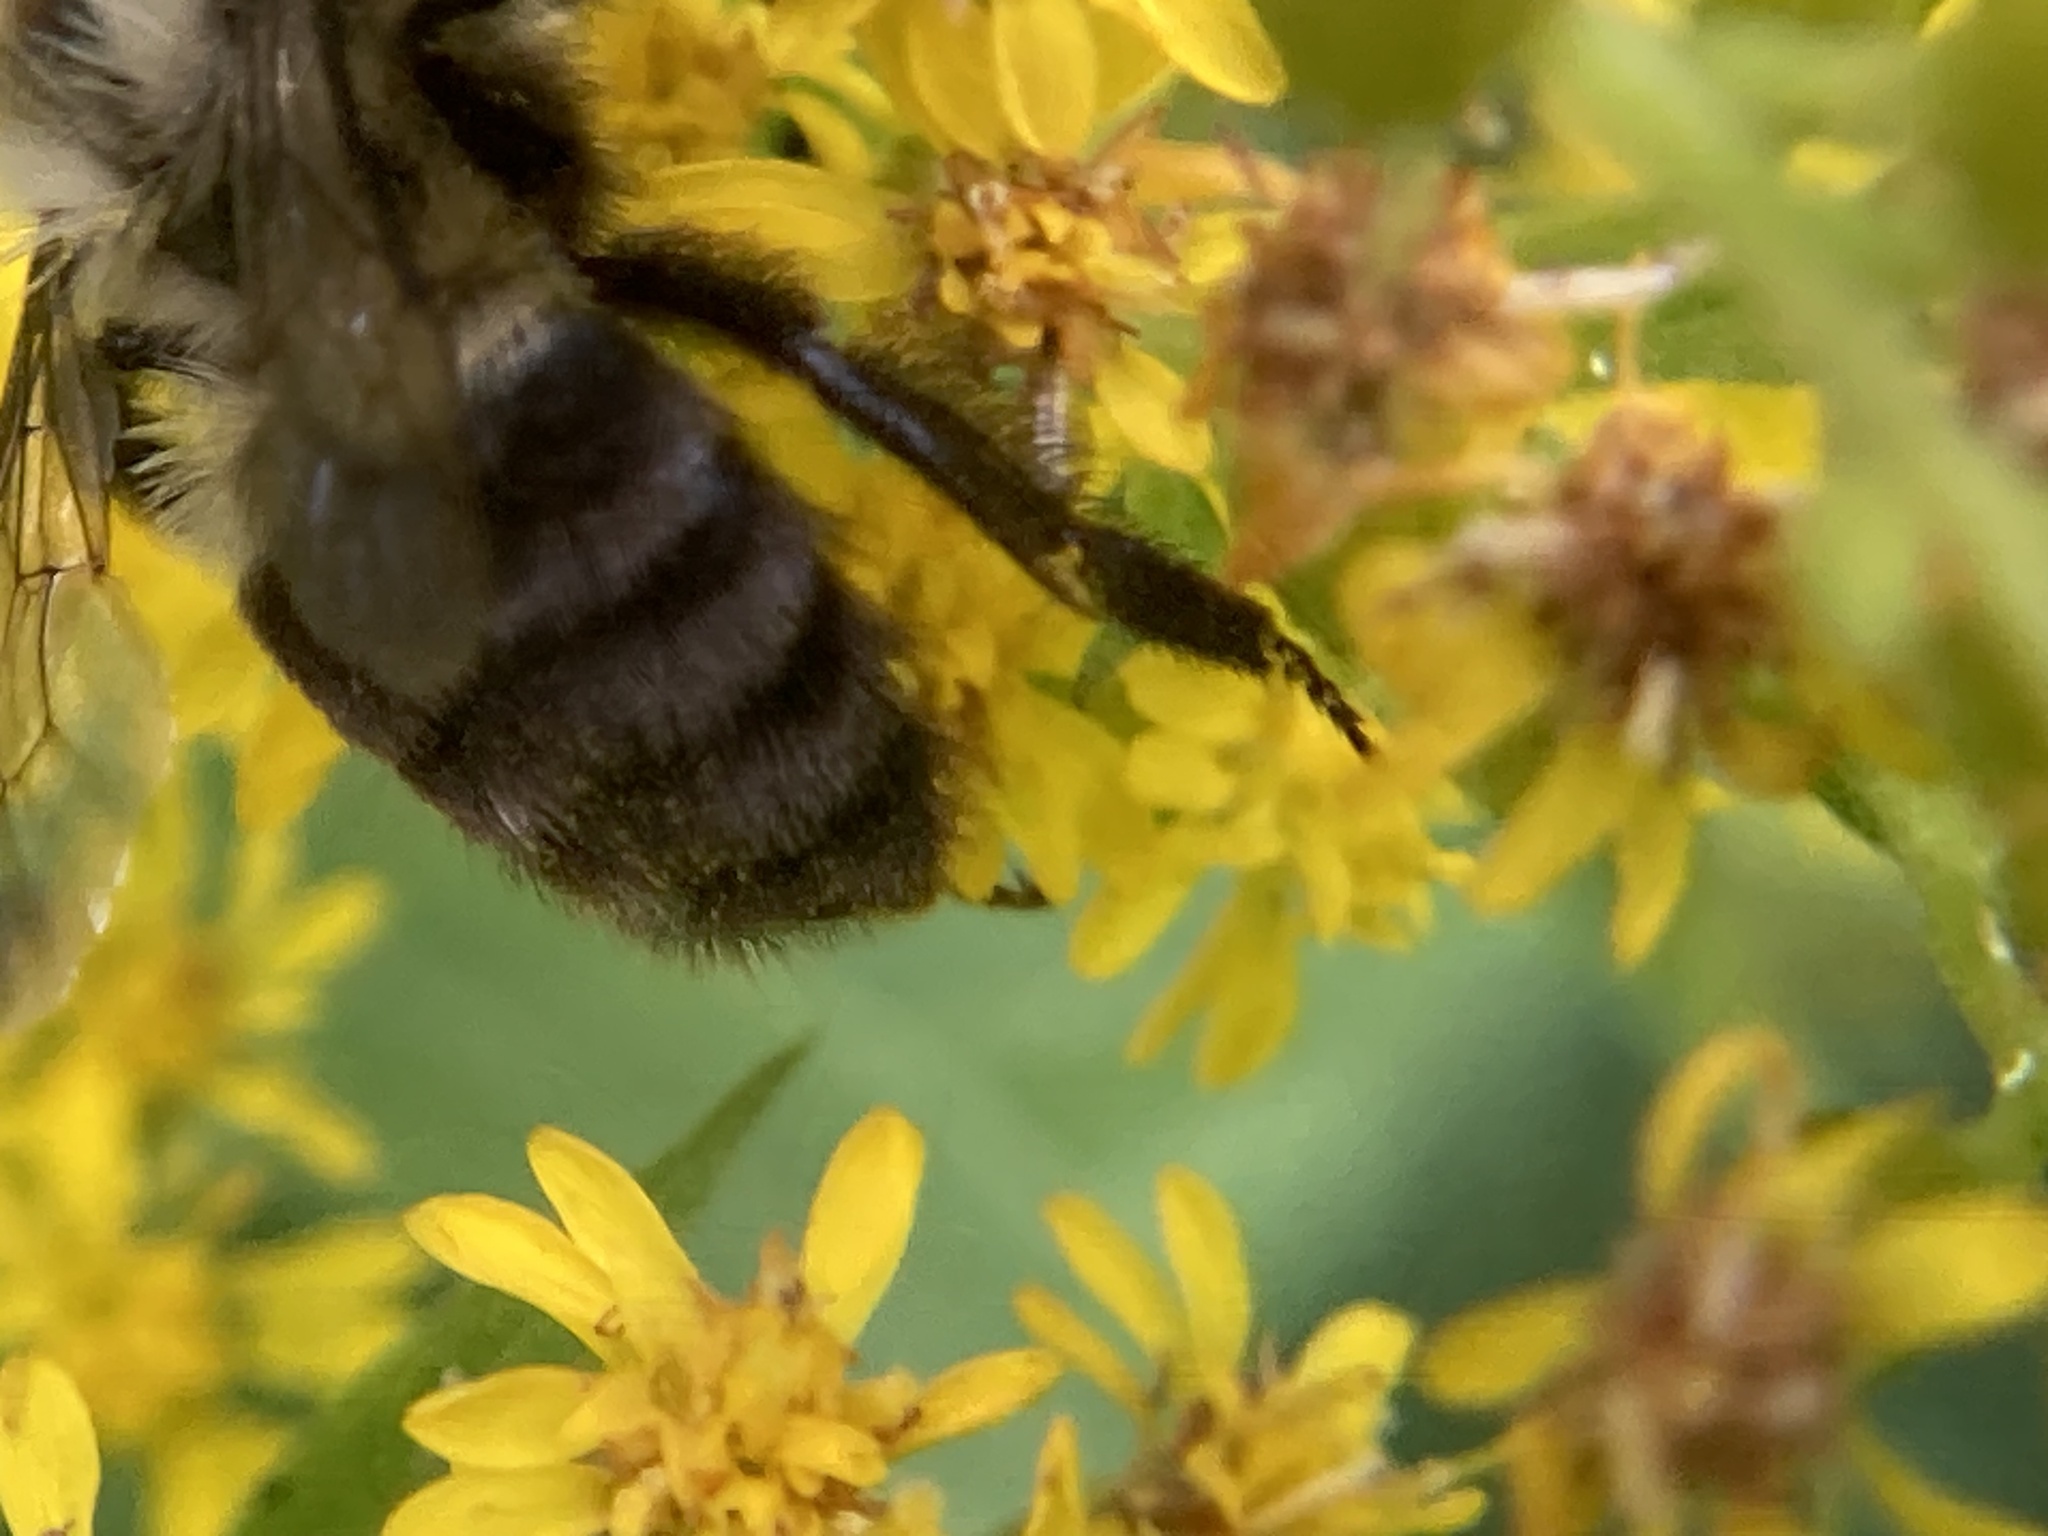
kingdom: Animalia
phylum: Arthropoda
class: Insecta
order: Hymenoptera
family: Apidae
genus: Bombus
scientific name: Bombus impatiens
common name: Common eastern bumble bee
